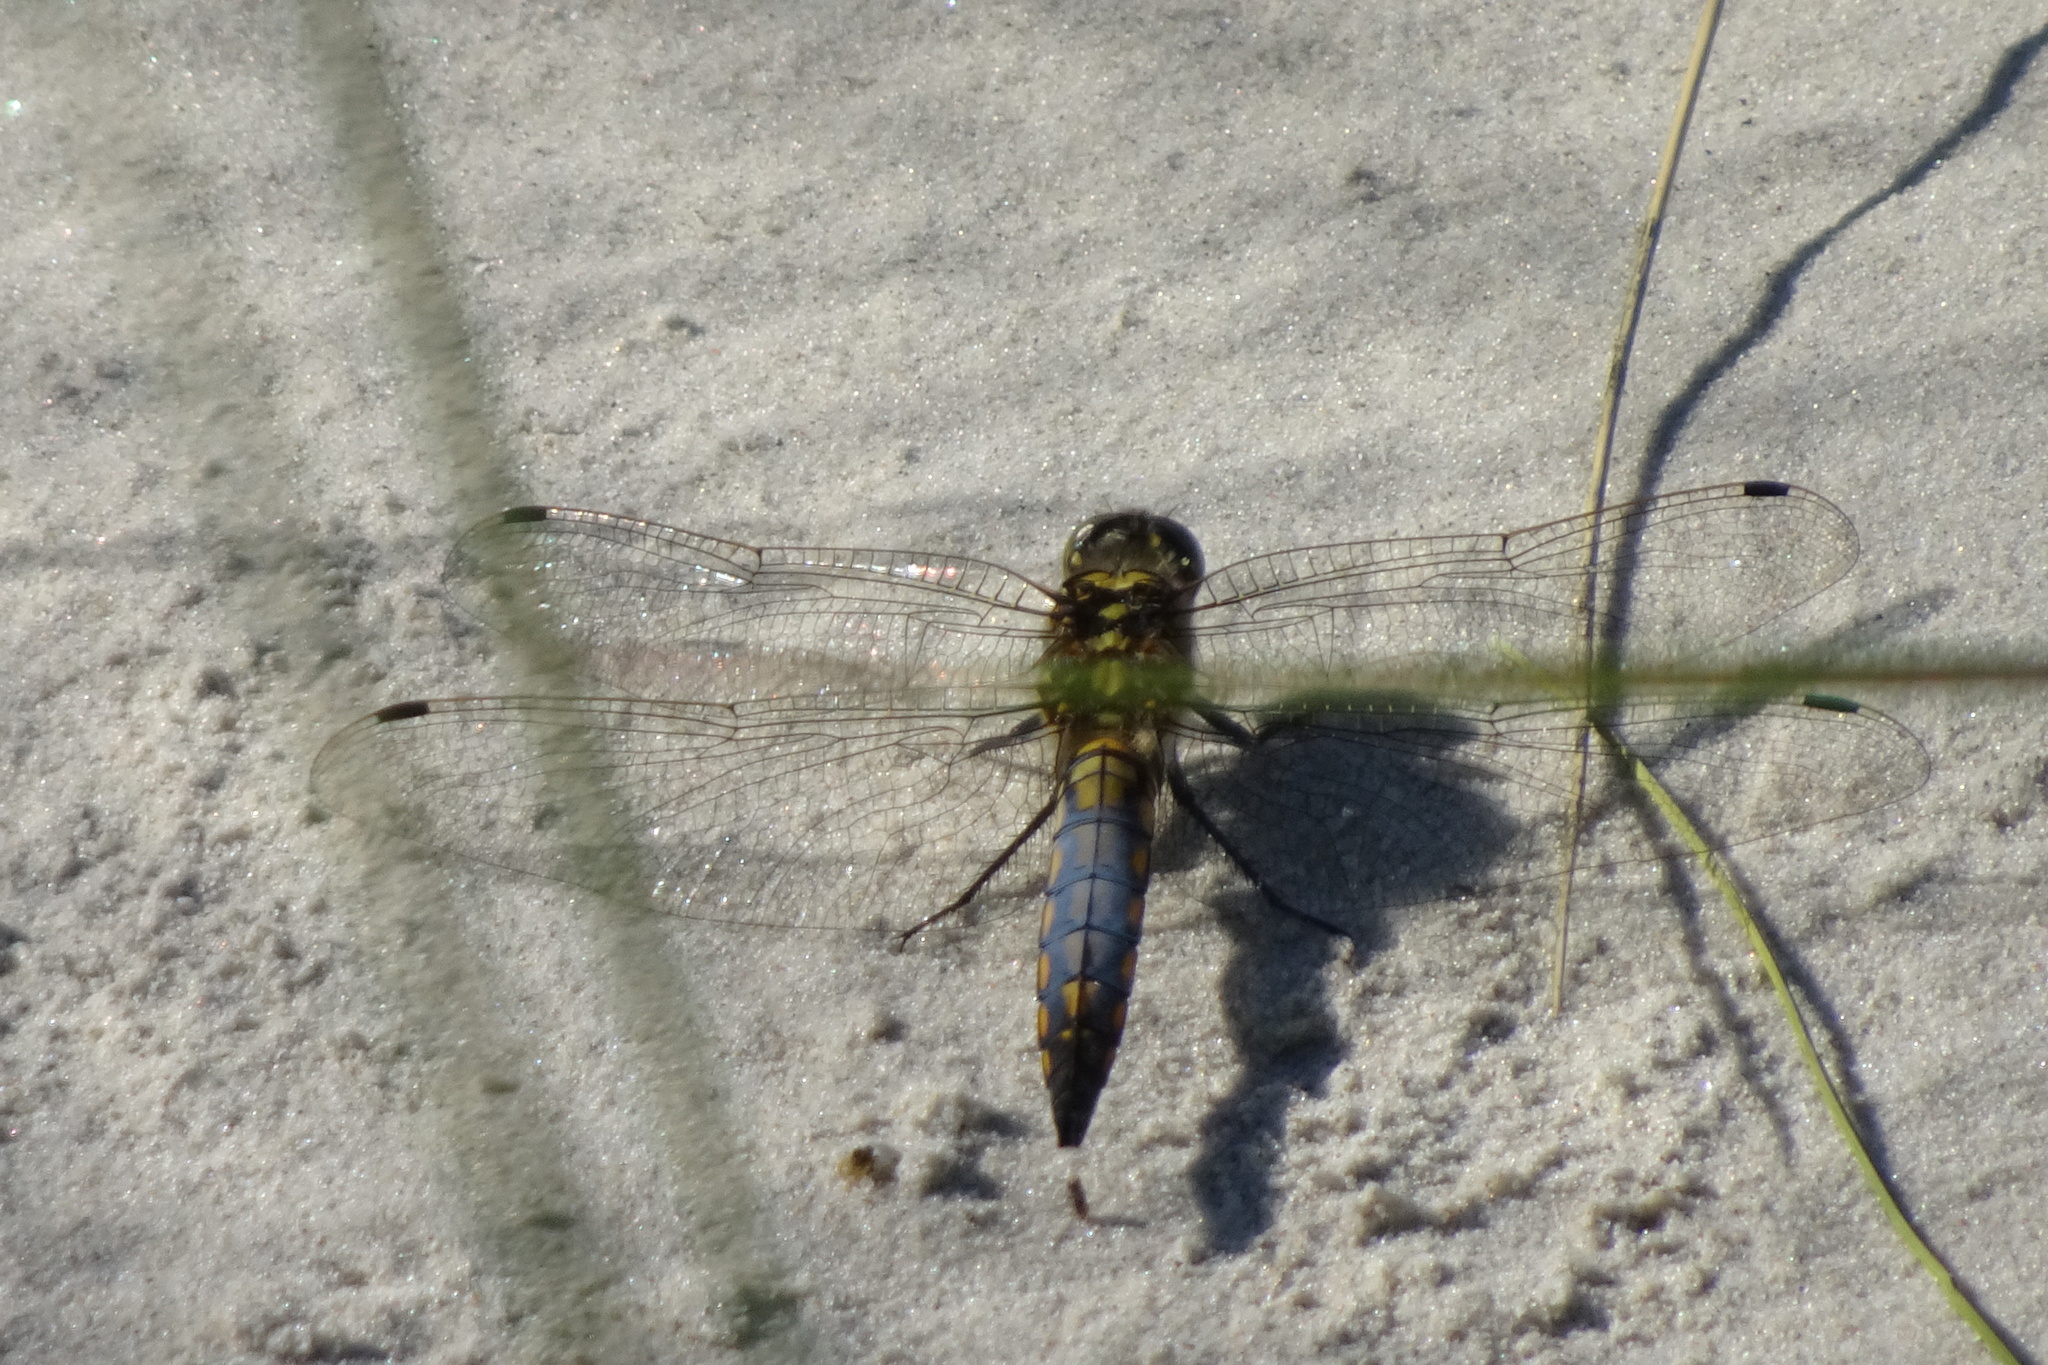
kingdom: Animalia
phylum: Arthropoda
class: Insecta
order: Odonata
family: Libellulidae
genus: Orthetrum
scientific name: Orthetrum cancellatum
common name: Black-tailed skimmer
